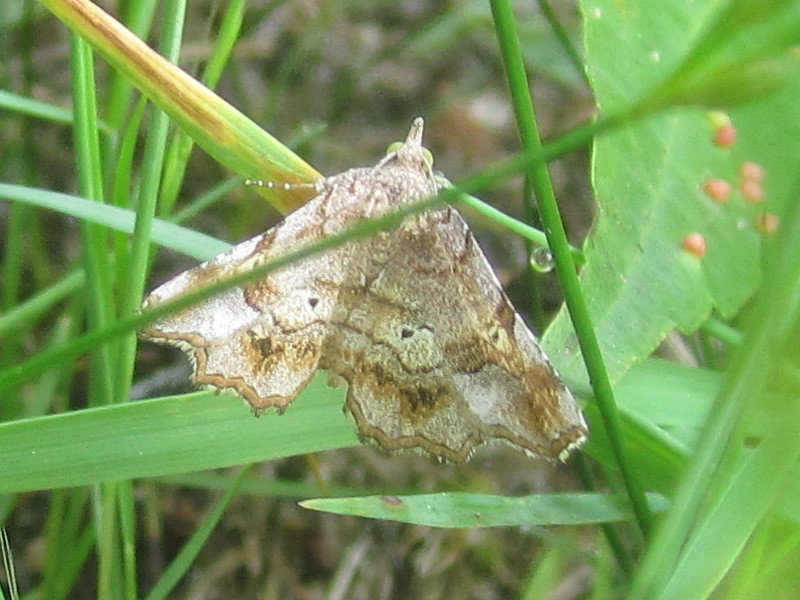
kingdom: Animalia
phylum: Arthropoda
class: Insecta
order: Lepidoptera
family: Erebidae
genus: Pangrapta
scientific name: Pangrapta decoralis
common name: Decorated owlet
